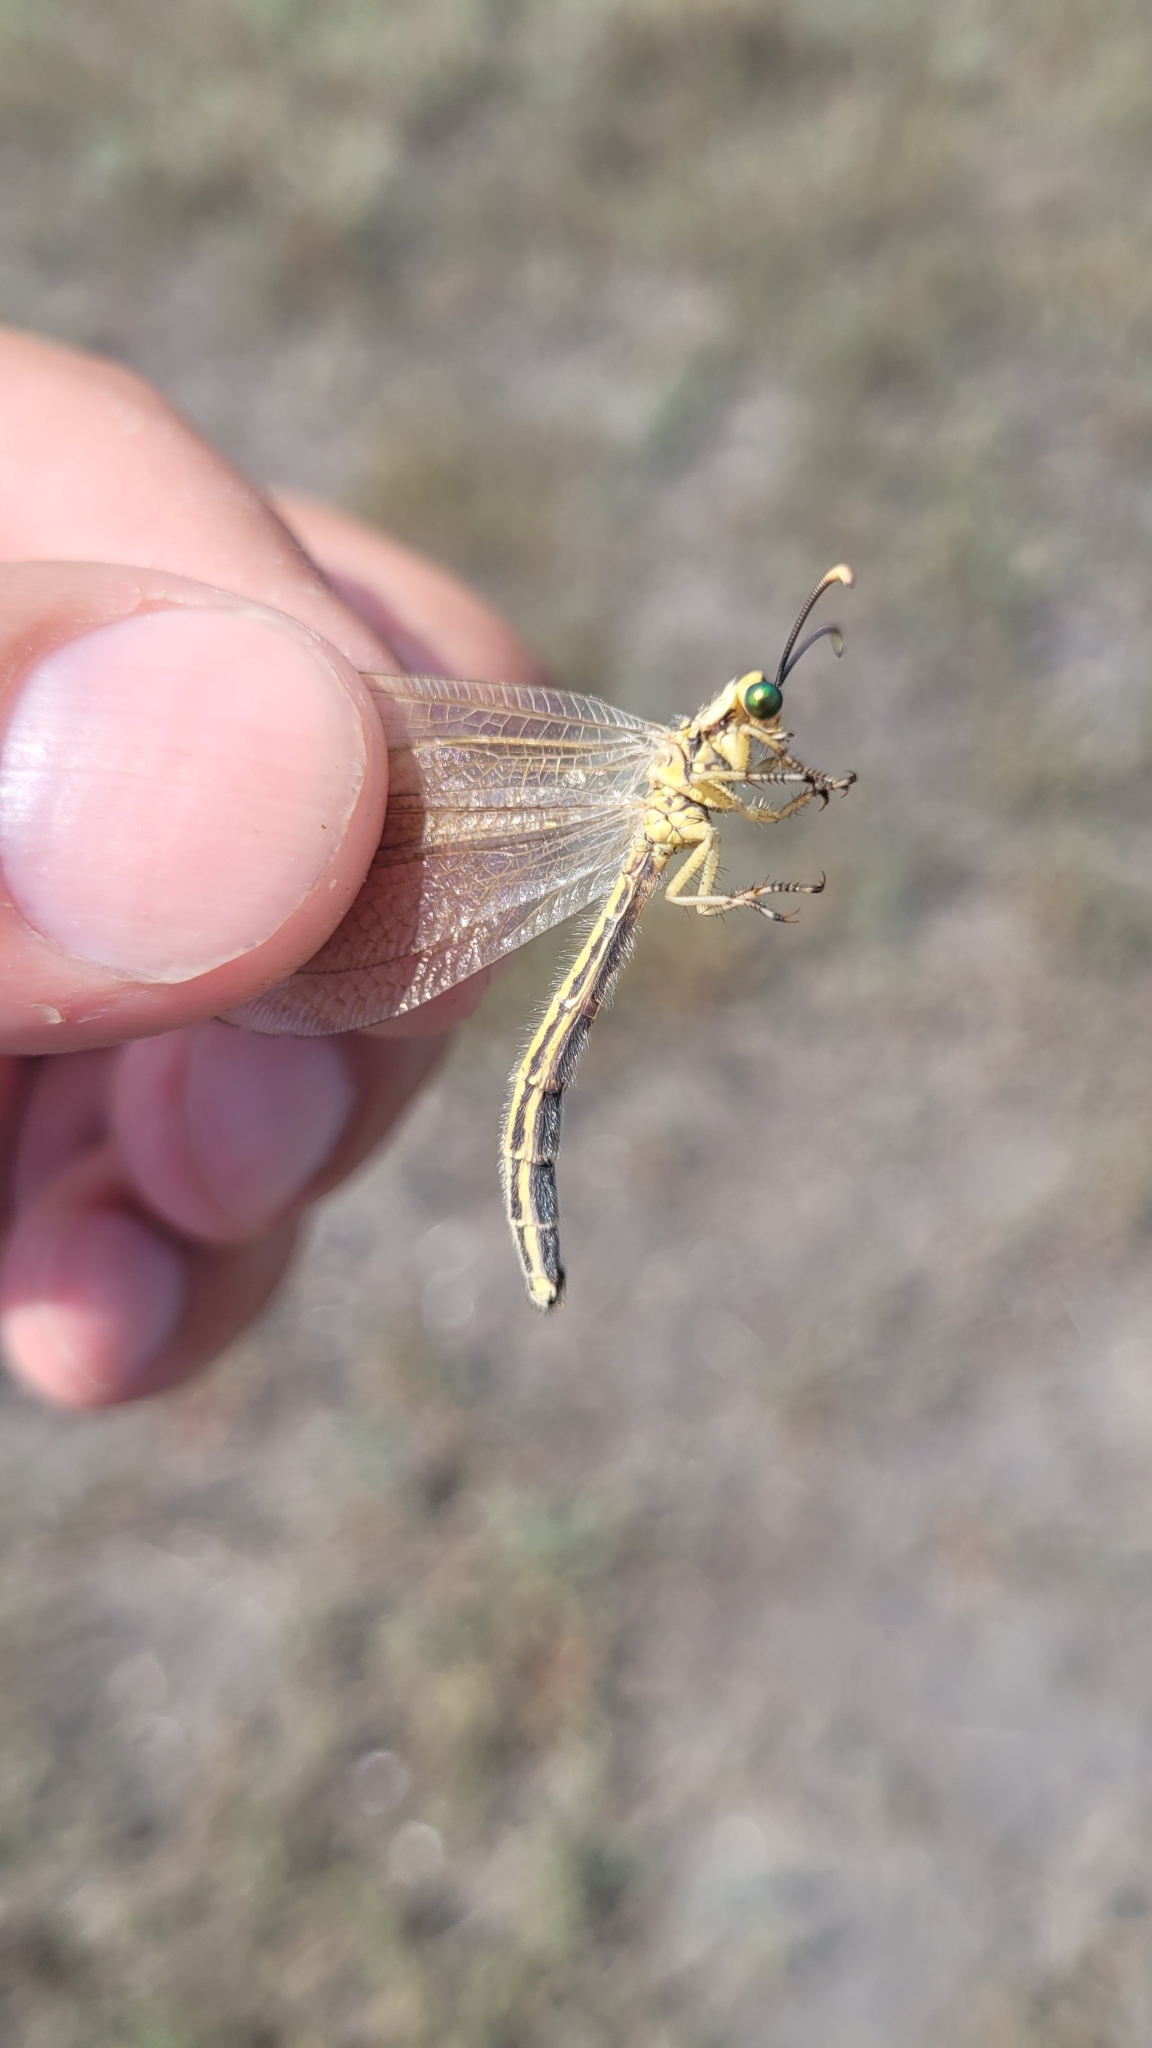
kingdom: Animalia
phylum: Arthropoda
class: Insecta
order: Neuroptera
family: Myrmeleontidae
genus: Myrmecaelurus
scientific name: Myrmecaelurus trigrammus
